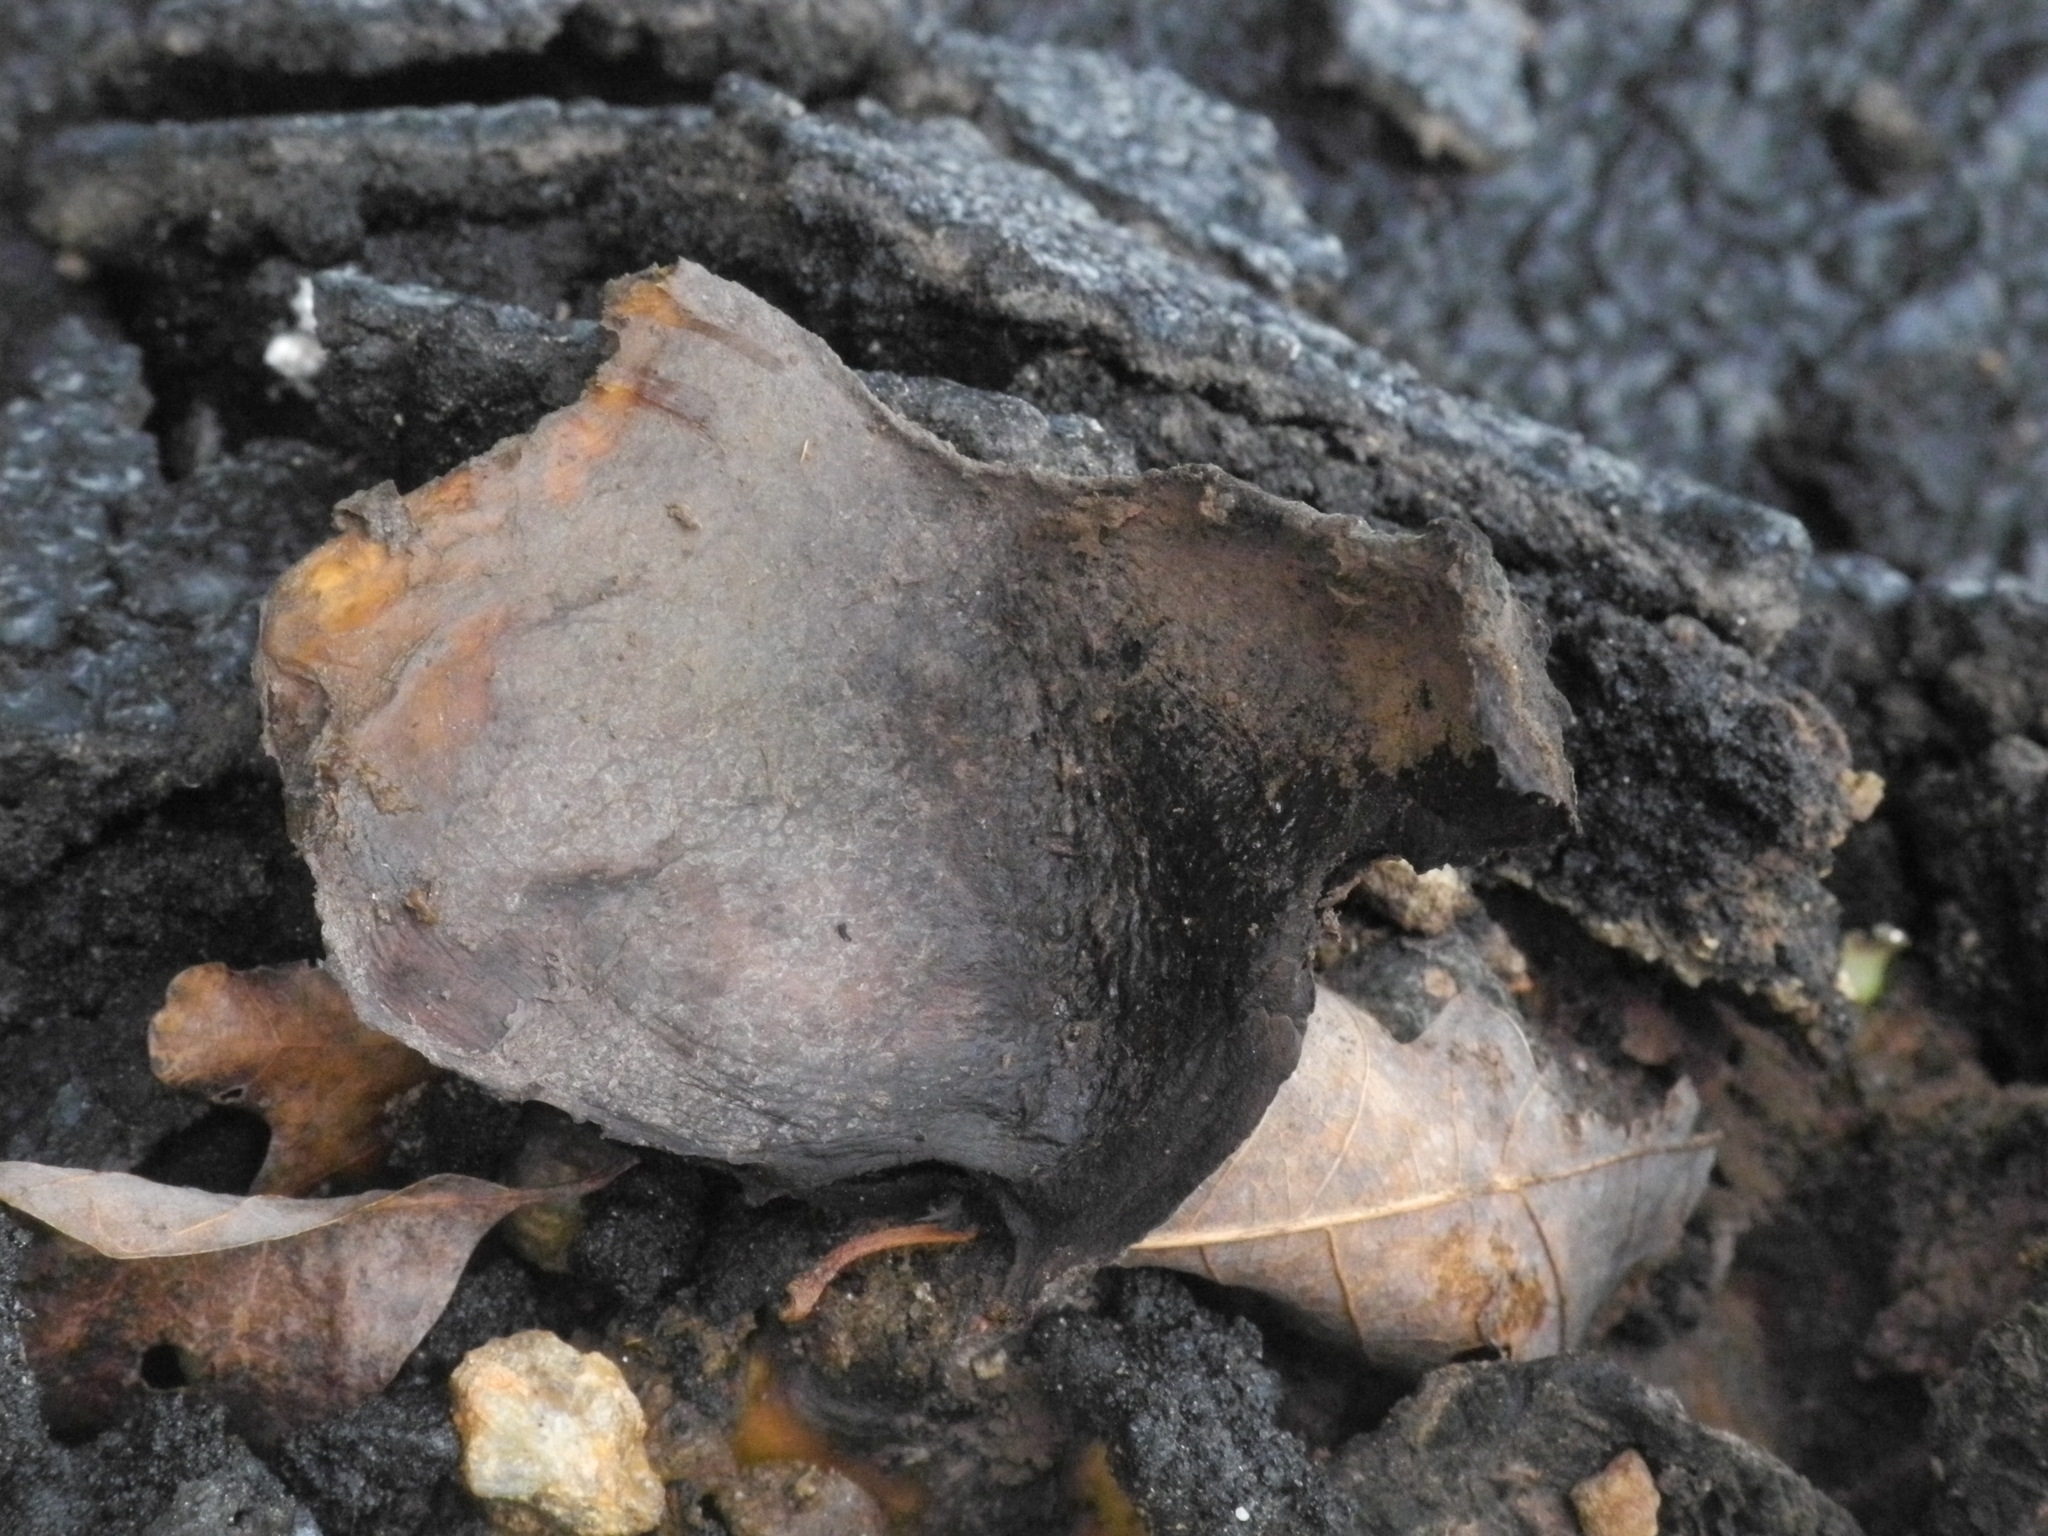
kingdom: Fungi
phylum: Basidiomycota
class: Agaricomycetes
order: Boletales
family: Sclerodermataceae
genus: Scleroderma
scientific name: Scleroderma polyrhizum
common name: Many-rooted earthball
